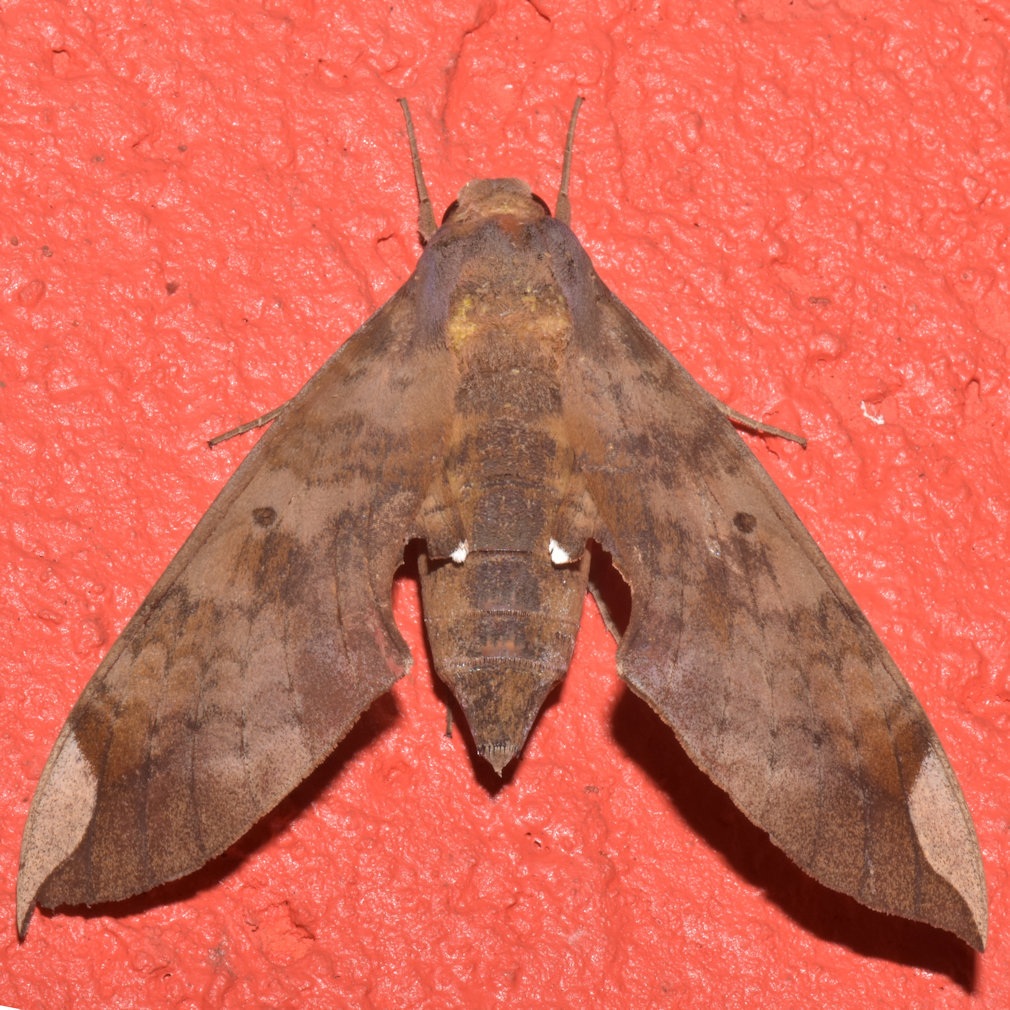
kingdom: Animalia
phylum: Arthropoda
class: Insecta
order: Lepidoptera
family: Sphingidae
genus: Pachylia
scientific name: Pachylia ficus
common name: Fig sphinx
